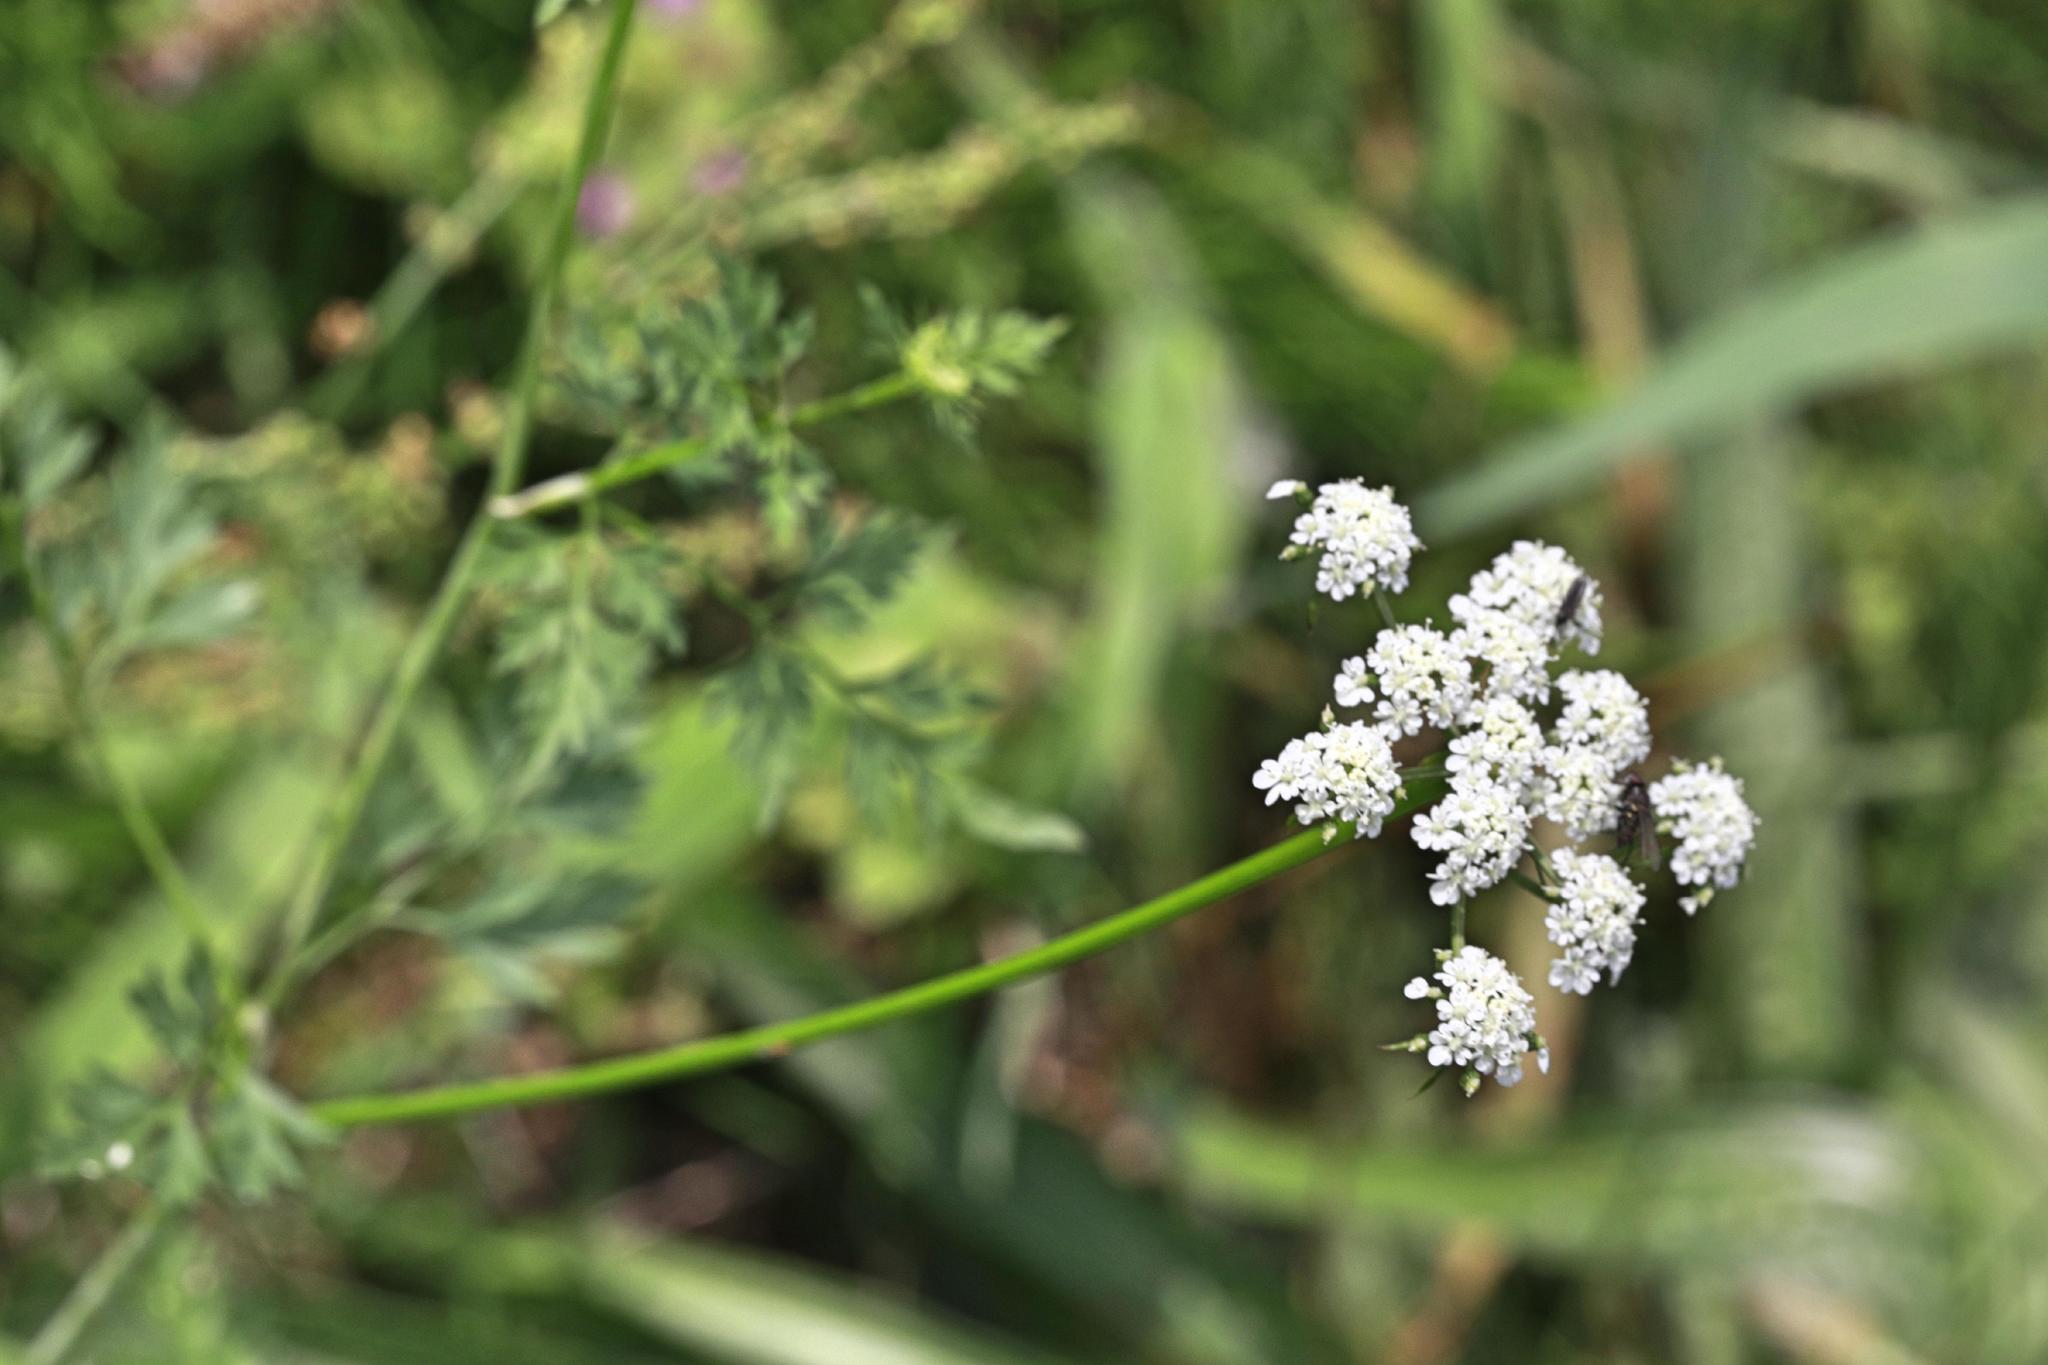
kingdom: Plantae
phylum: Tracheophyta
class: Magnoliopsida
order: Apiales
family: Apiaceae
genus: Torilis
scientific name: Torilis japonica
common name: Upright hedge-parsley
